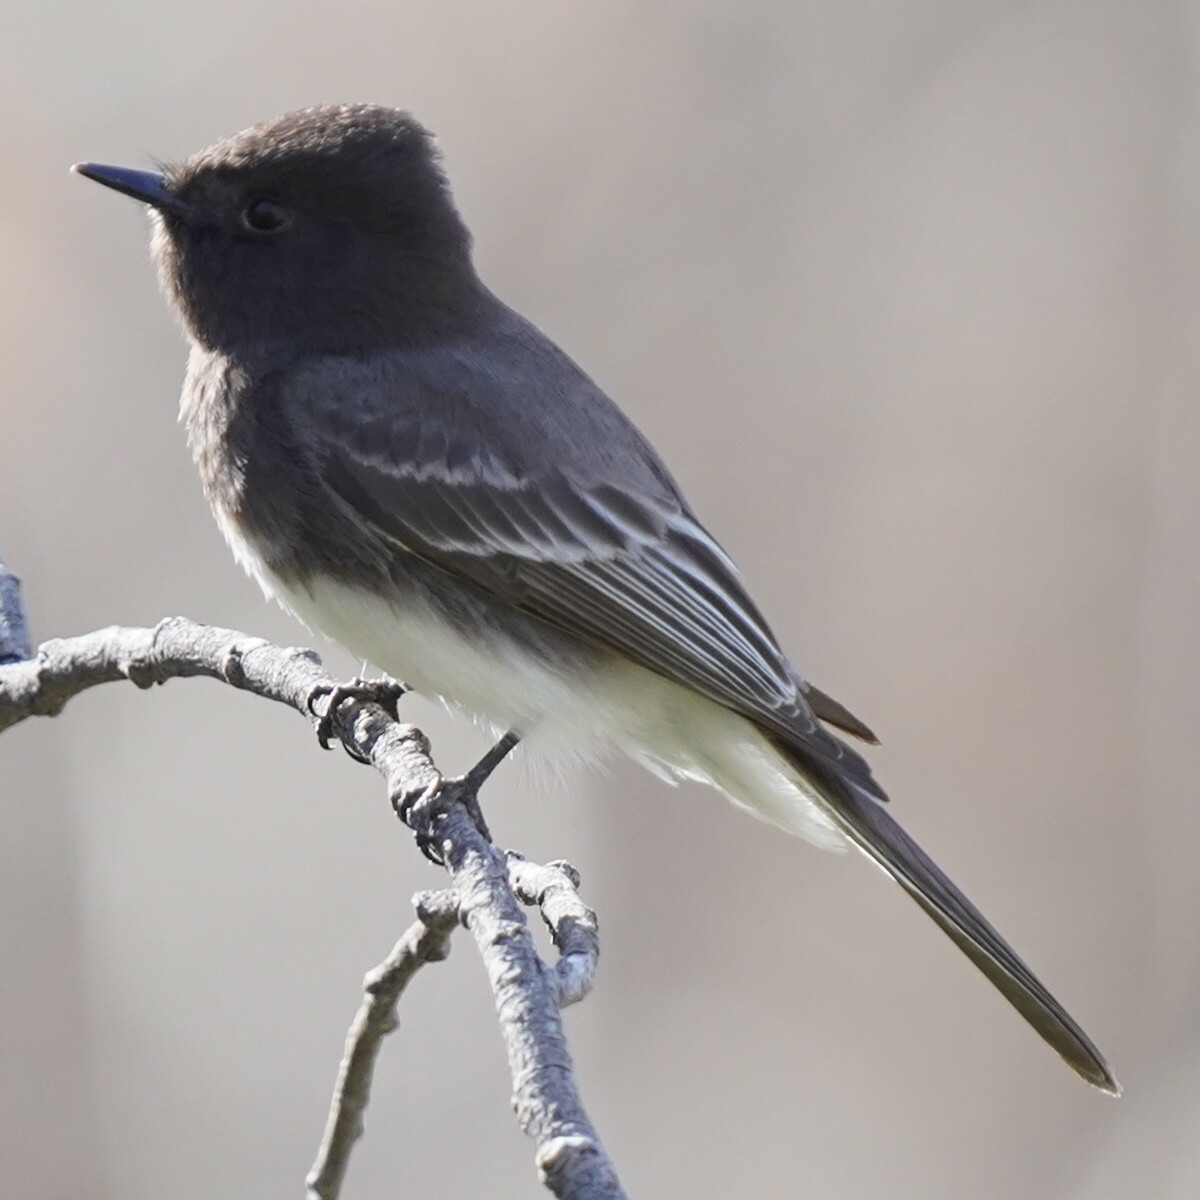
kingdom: Animalia
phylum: Chordata
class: Aves
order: Passeriformes
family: Tyrannidae
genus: Sayornis
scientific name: Sayornis nigricans
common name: Black phoebe
